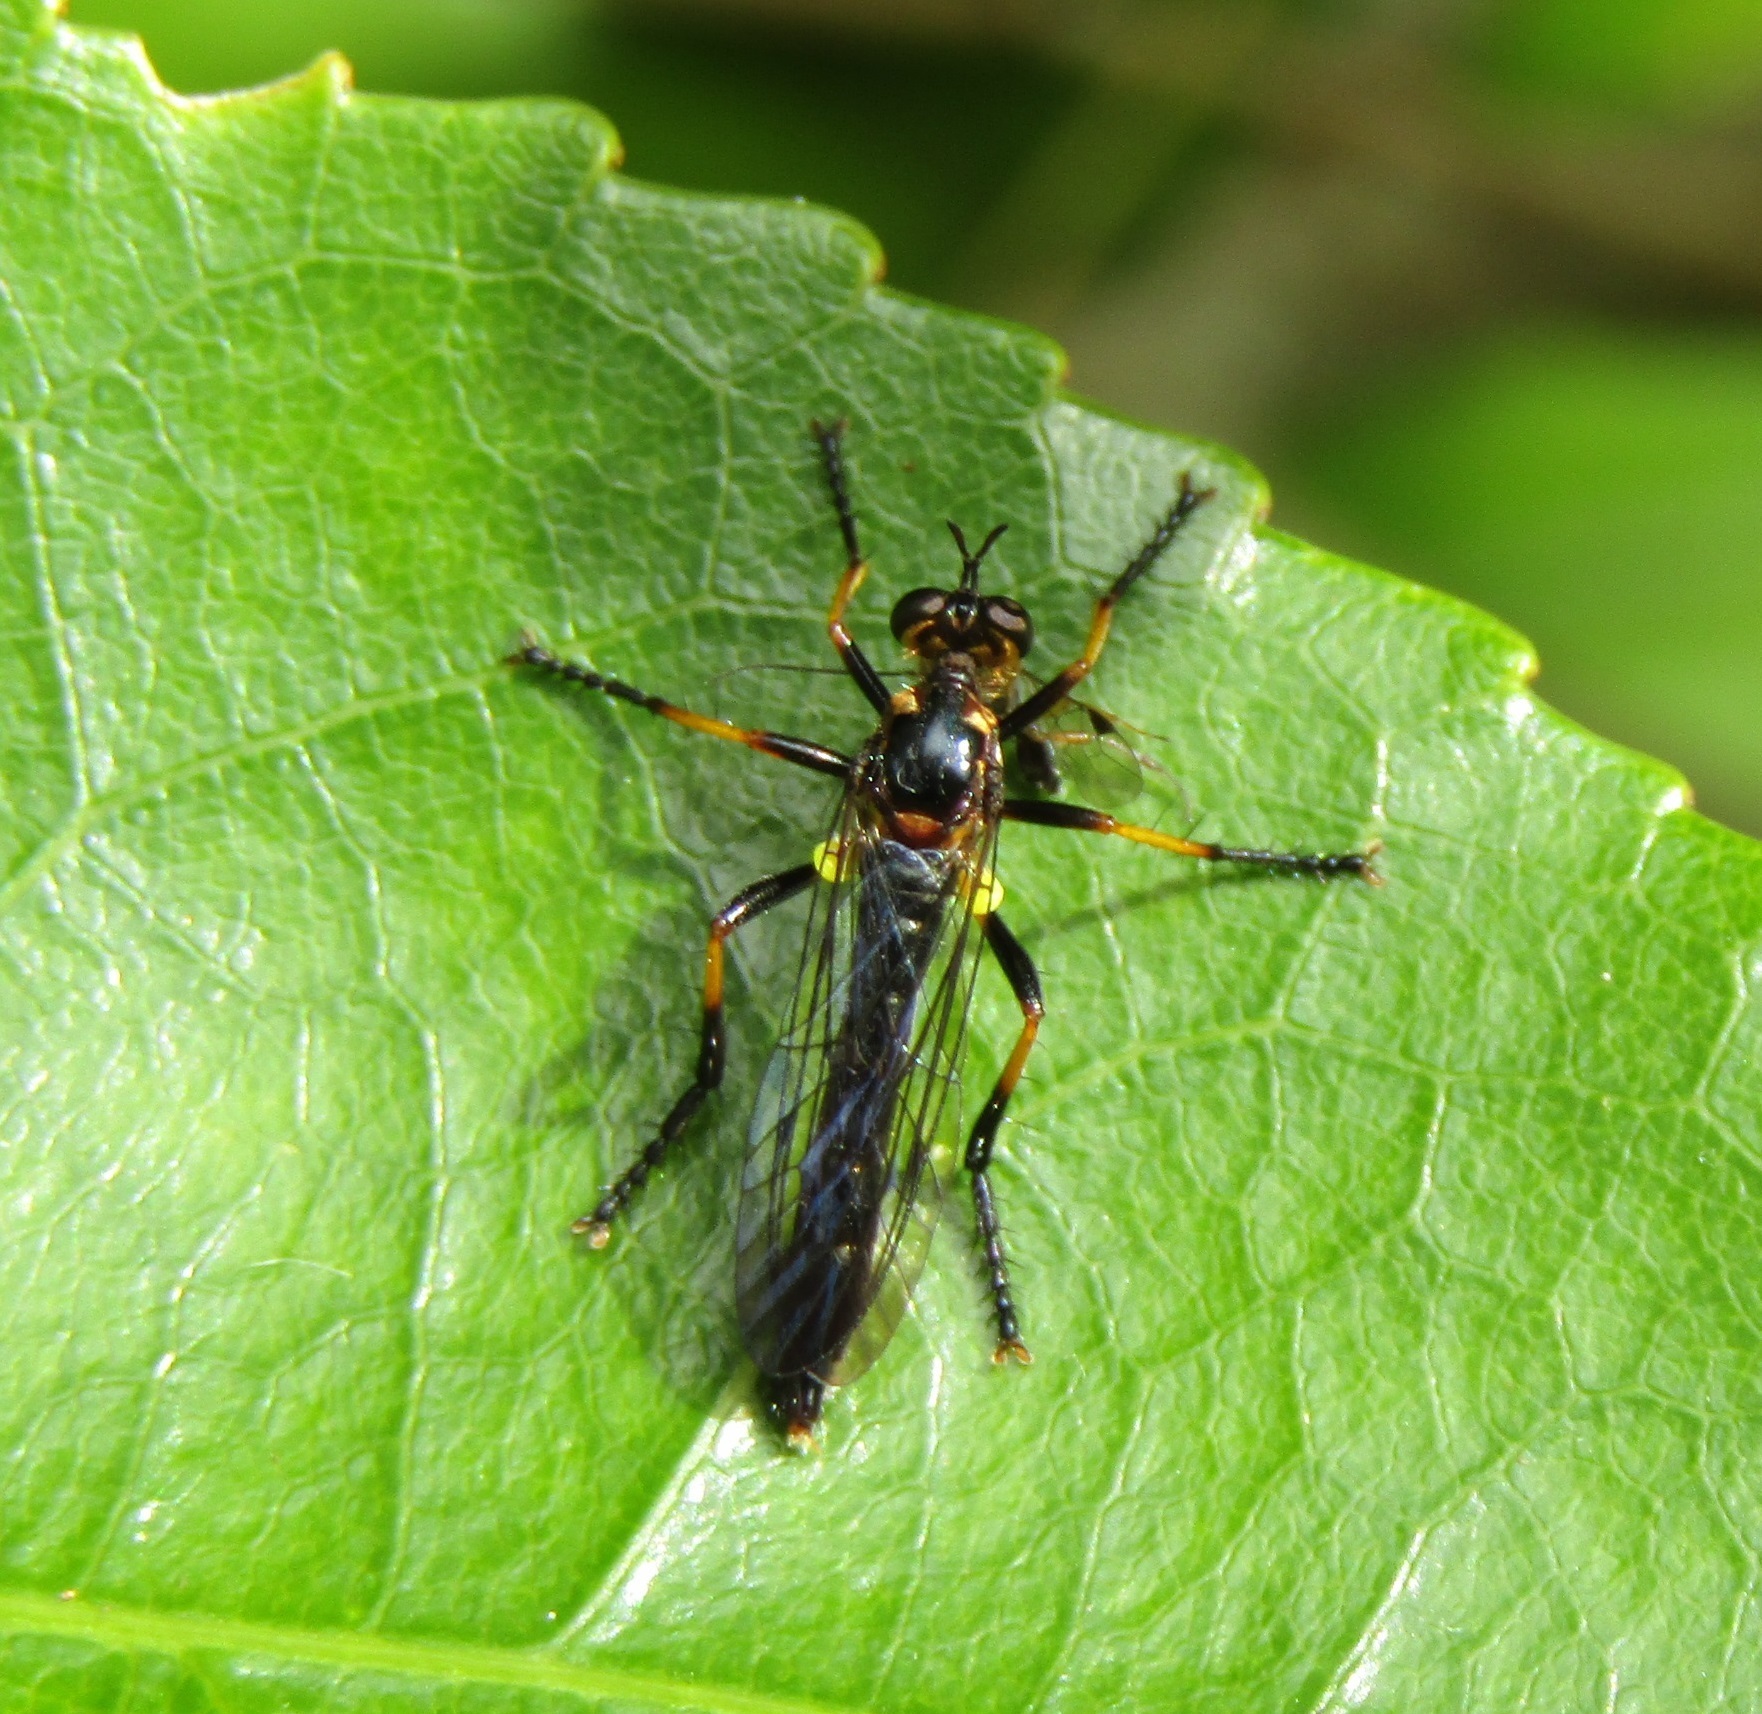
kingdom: Animalia
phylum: Arthropoda
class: Insecta
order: Diptera
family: Asilidae
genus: Saropogon
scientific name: Saropogon fascipes
